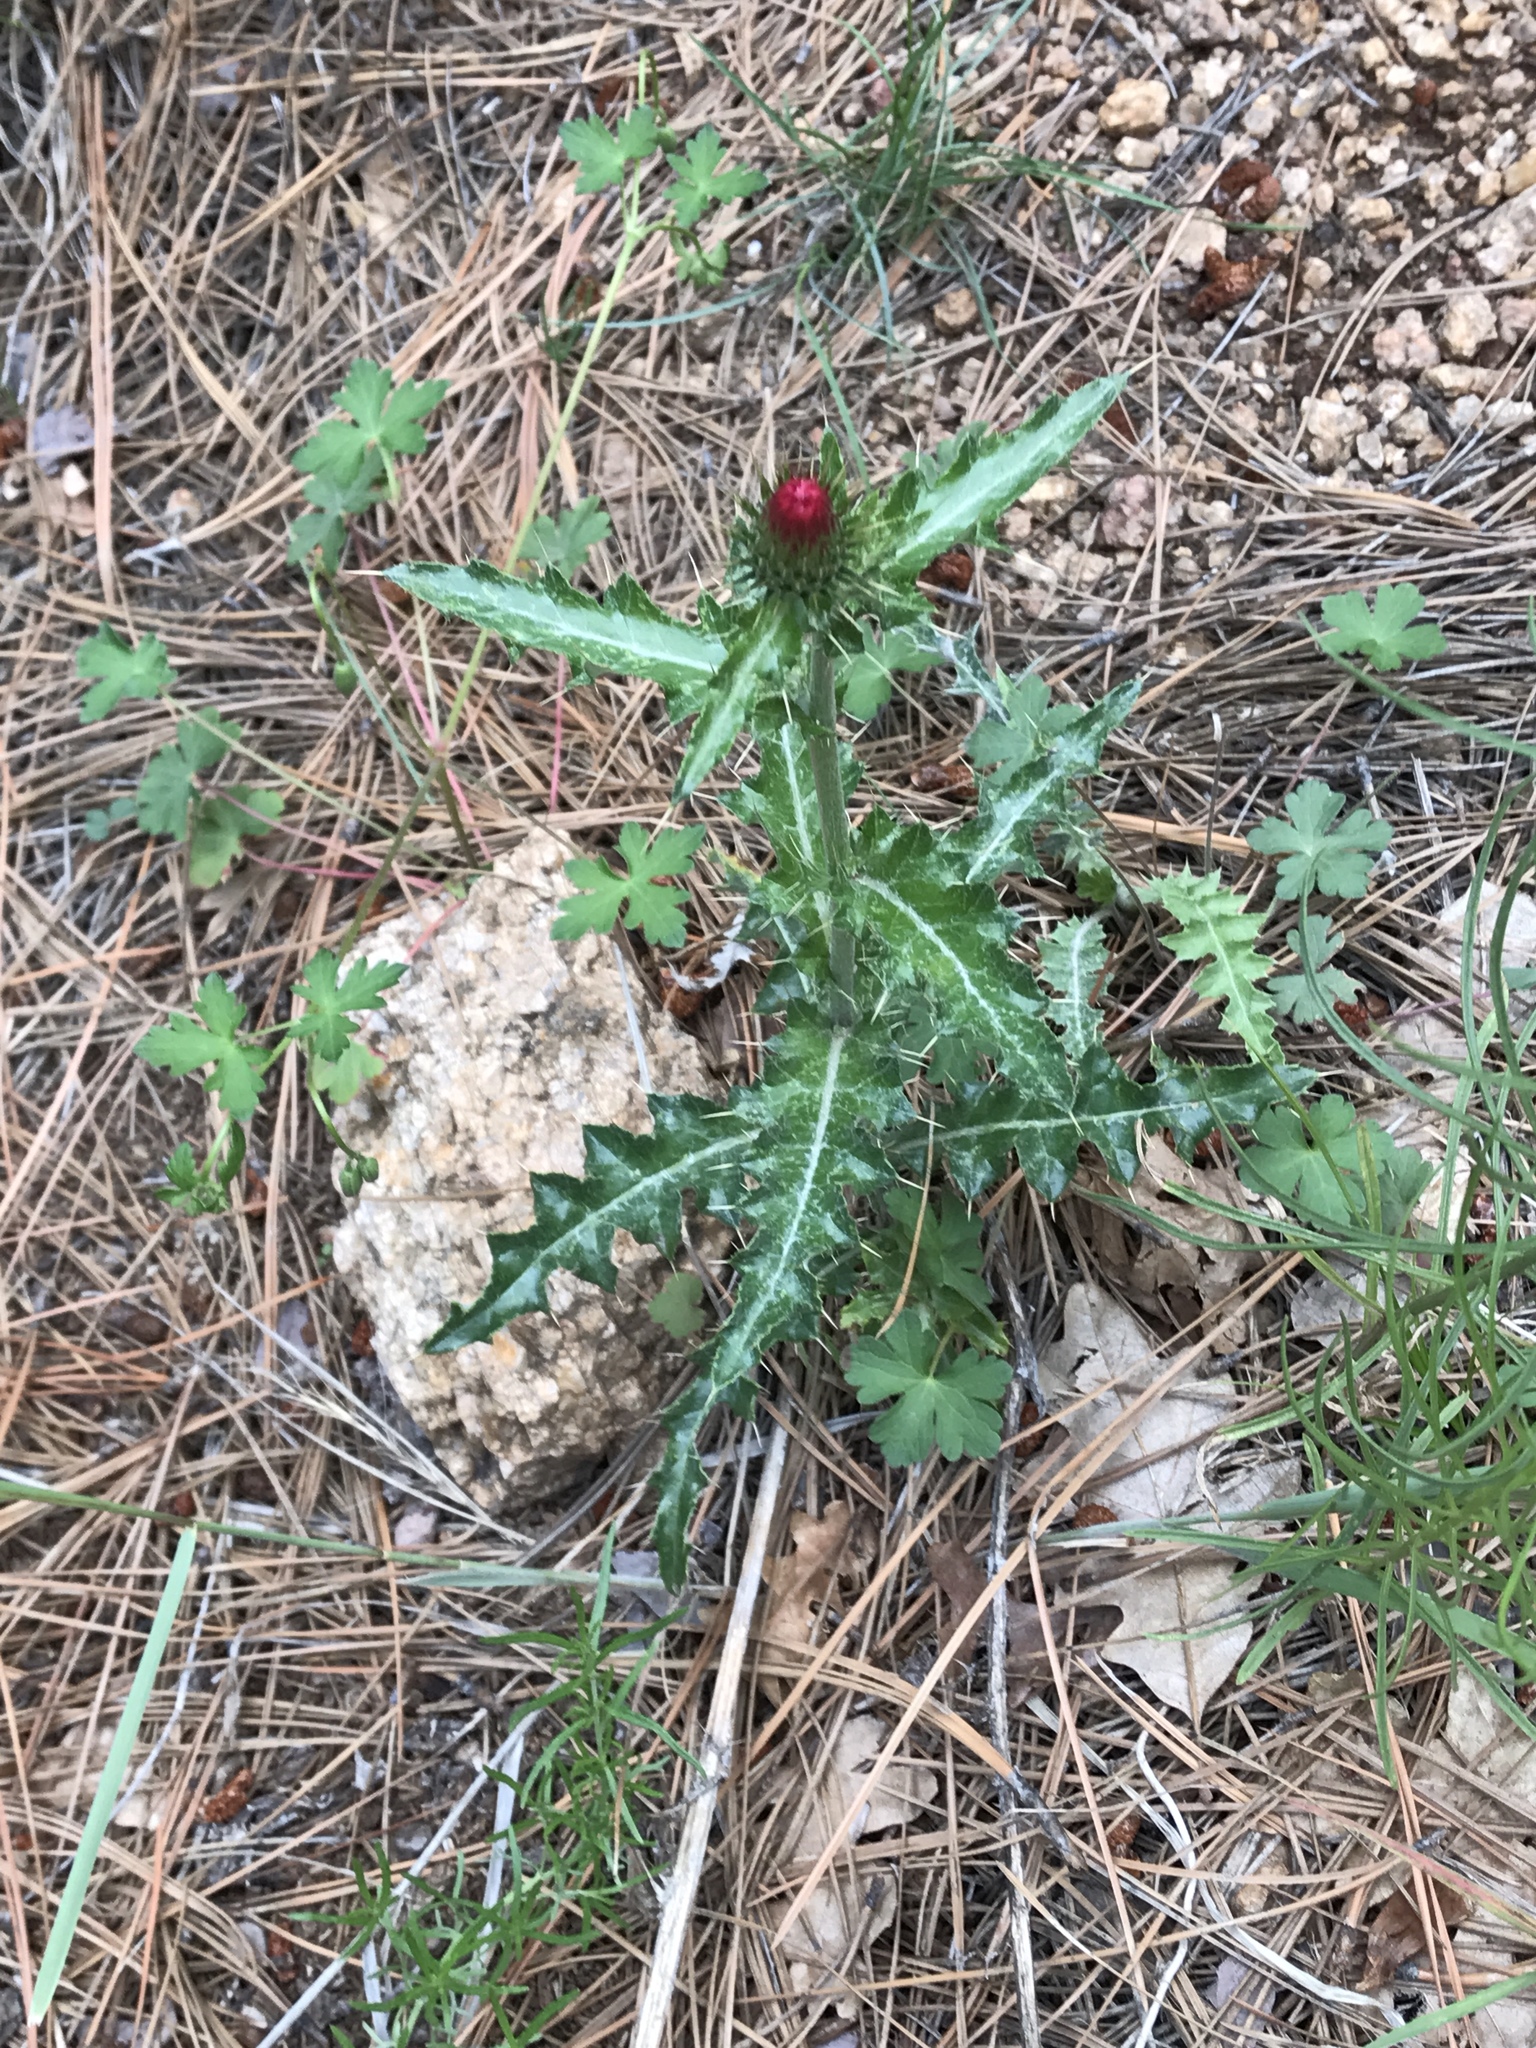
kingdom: Plantae
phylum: Tracheophyta
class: Magnoliopsida
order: Asterales
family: Asteraceae
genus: Cirsium
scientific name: Cirsium arizonicum
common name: Arizona thistle
